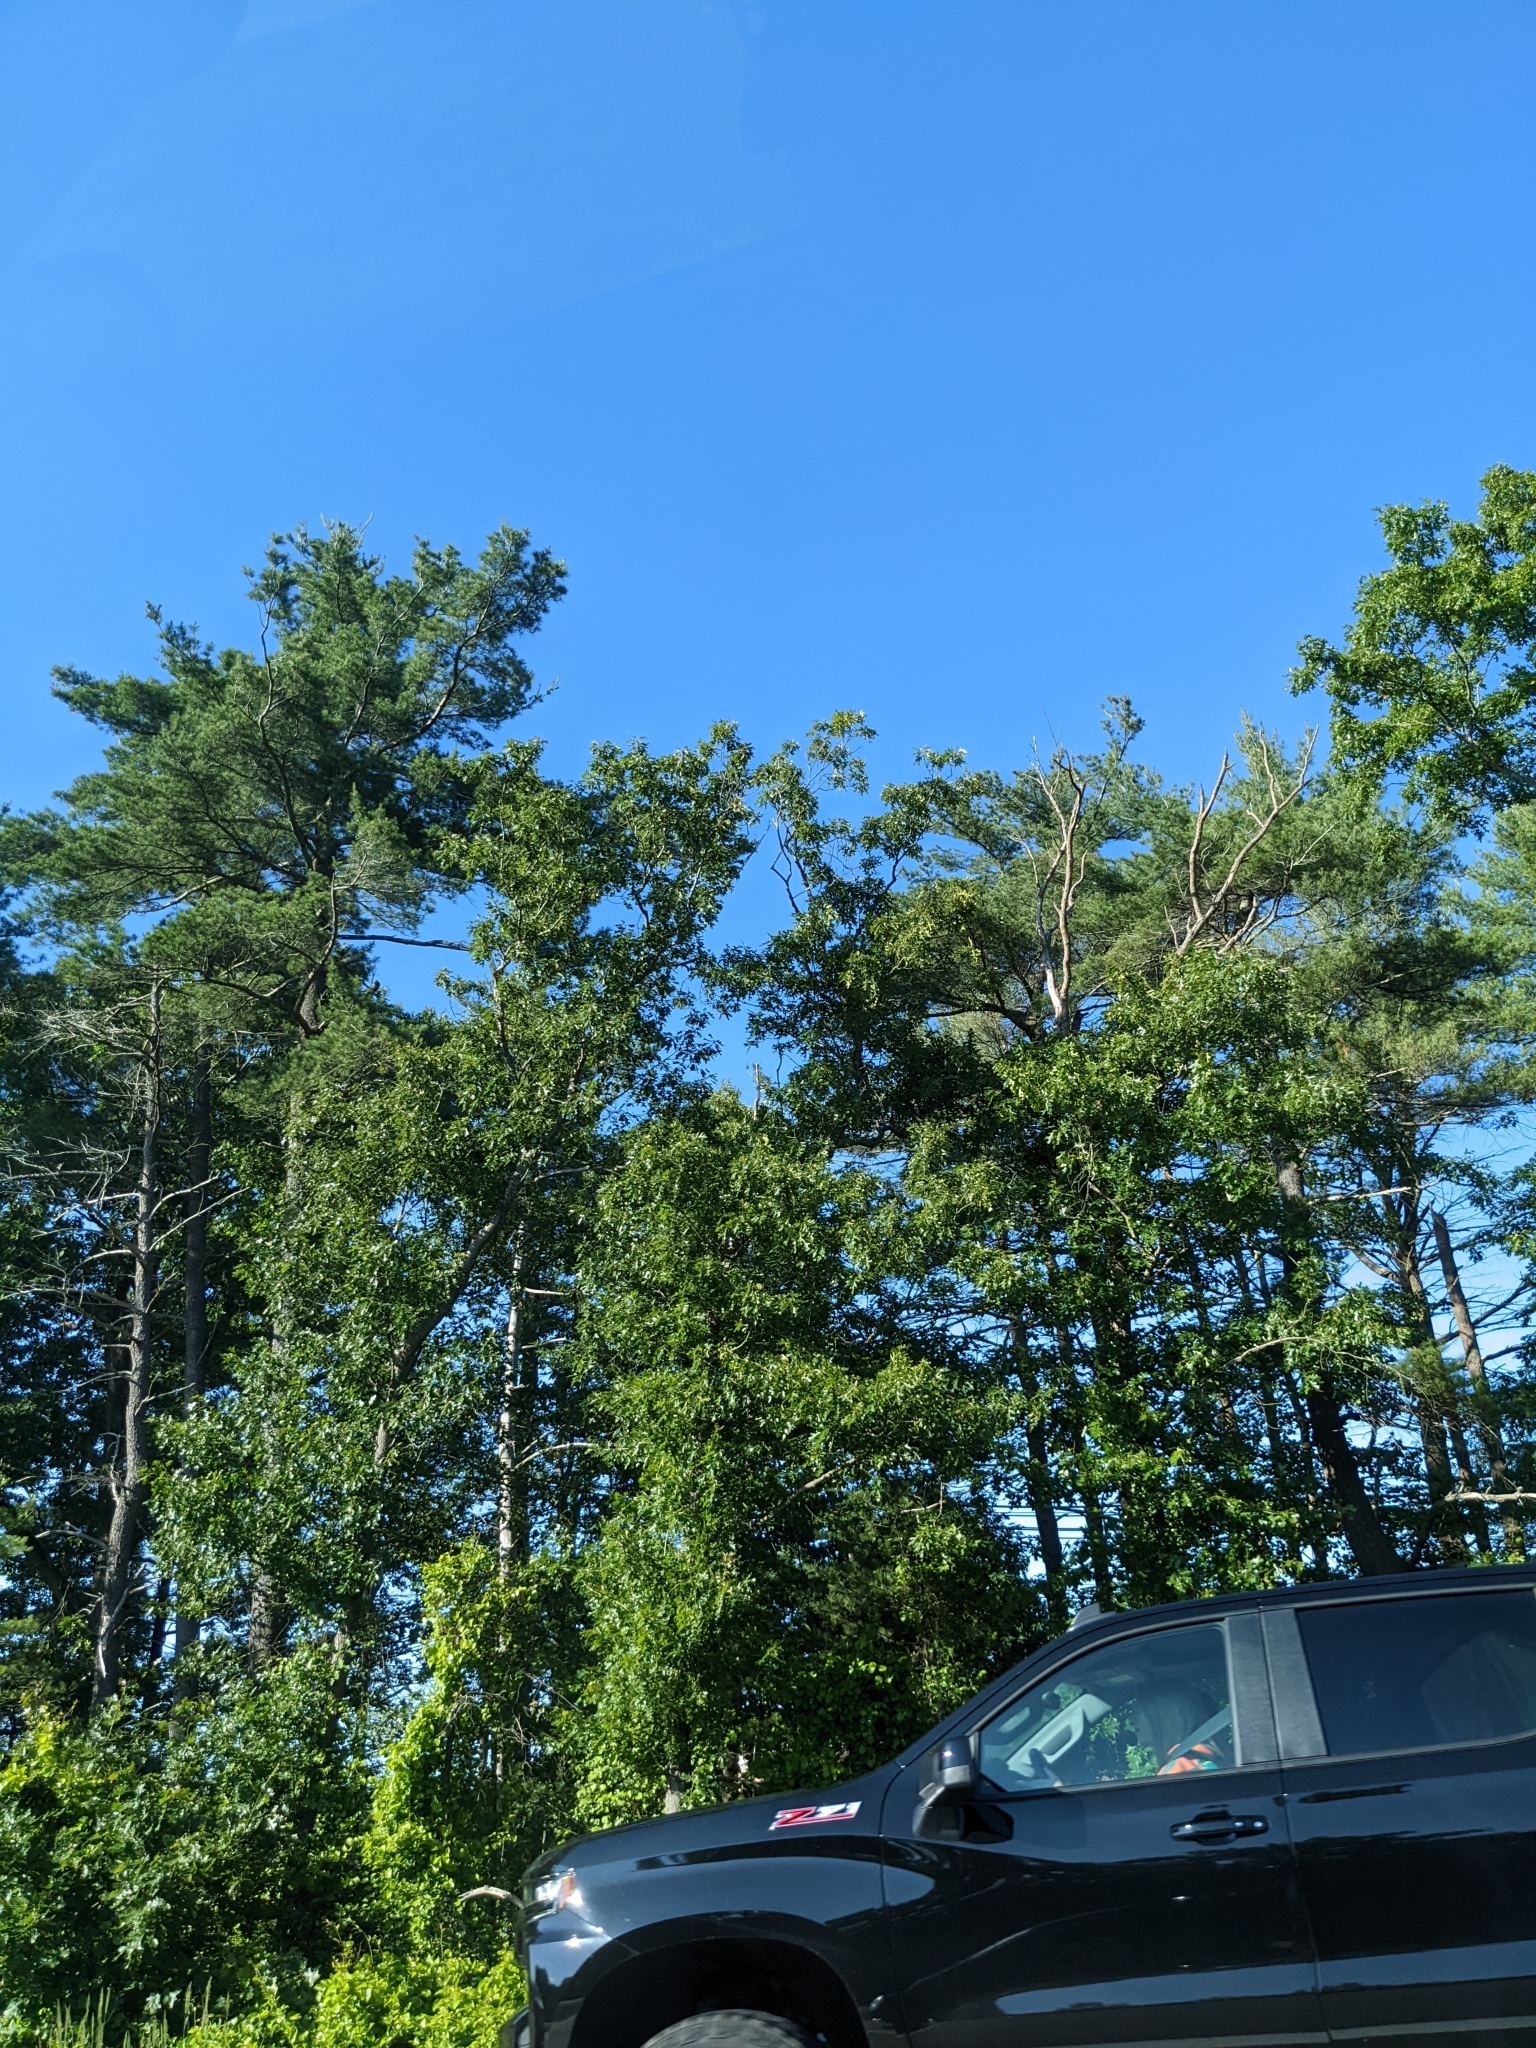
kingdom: Plantae
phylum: Tracheophyta
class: Pinopsida
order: Pinales
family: Pinaceae
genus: Pinus
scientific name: Pinus strobus
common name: Weymouth pine
